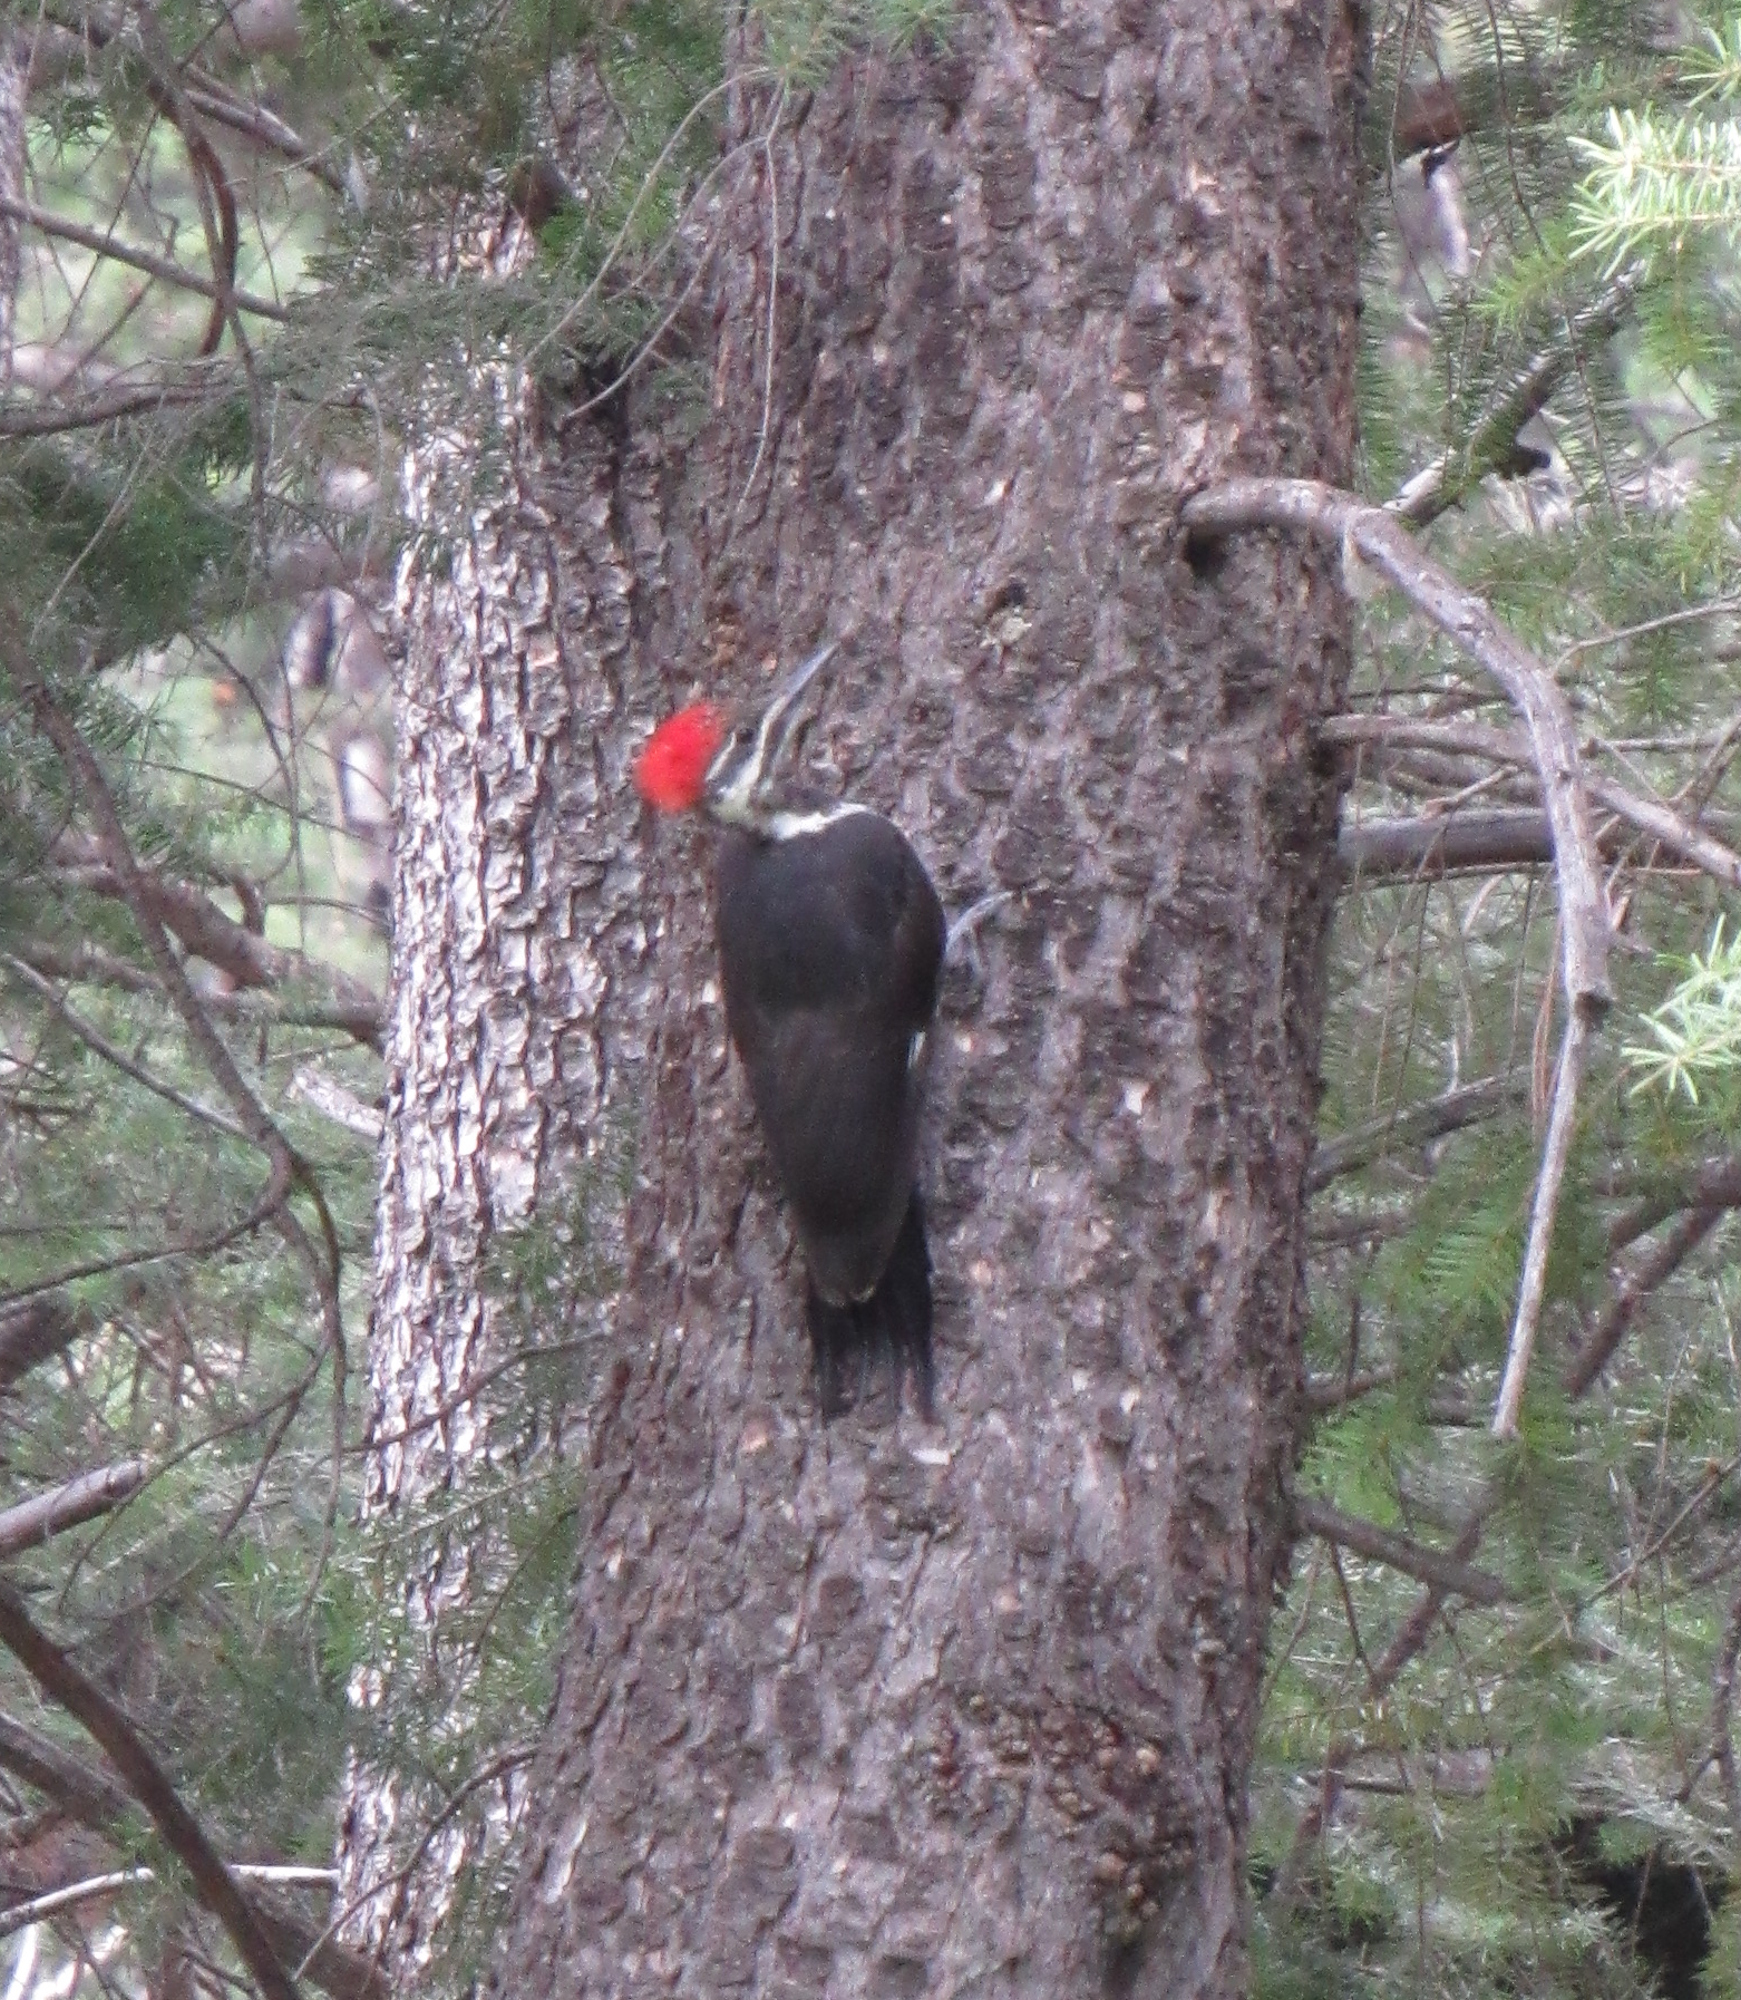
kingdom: Animalia
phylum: Chordata
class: Aves
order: Piciformes
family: Picidae
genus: Dryocopus
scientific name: Dryocopus pileatus
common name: Pileated woodpecker
